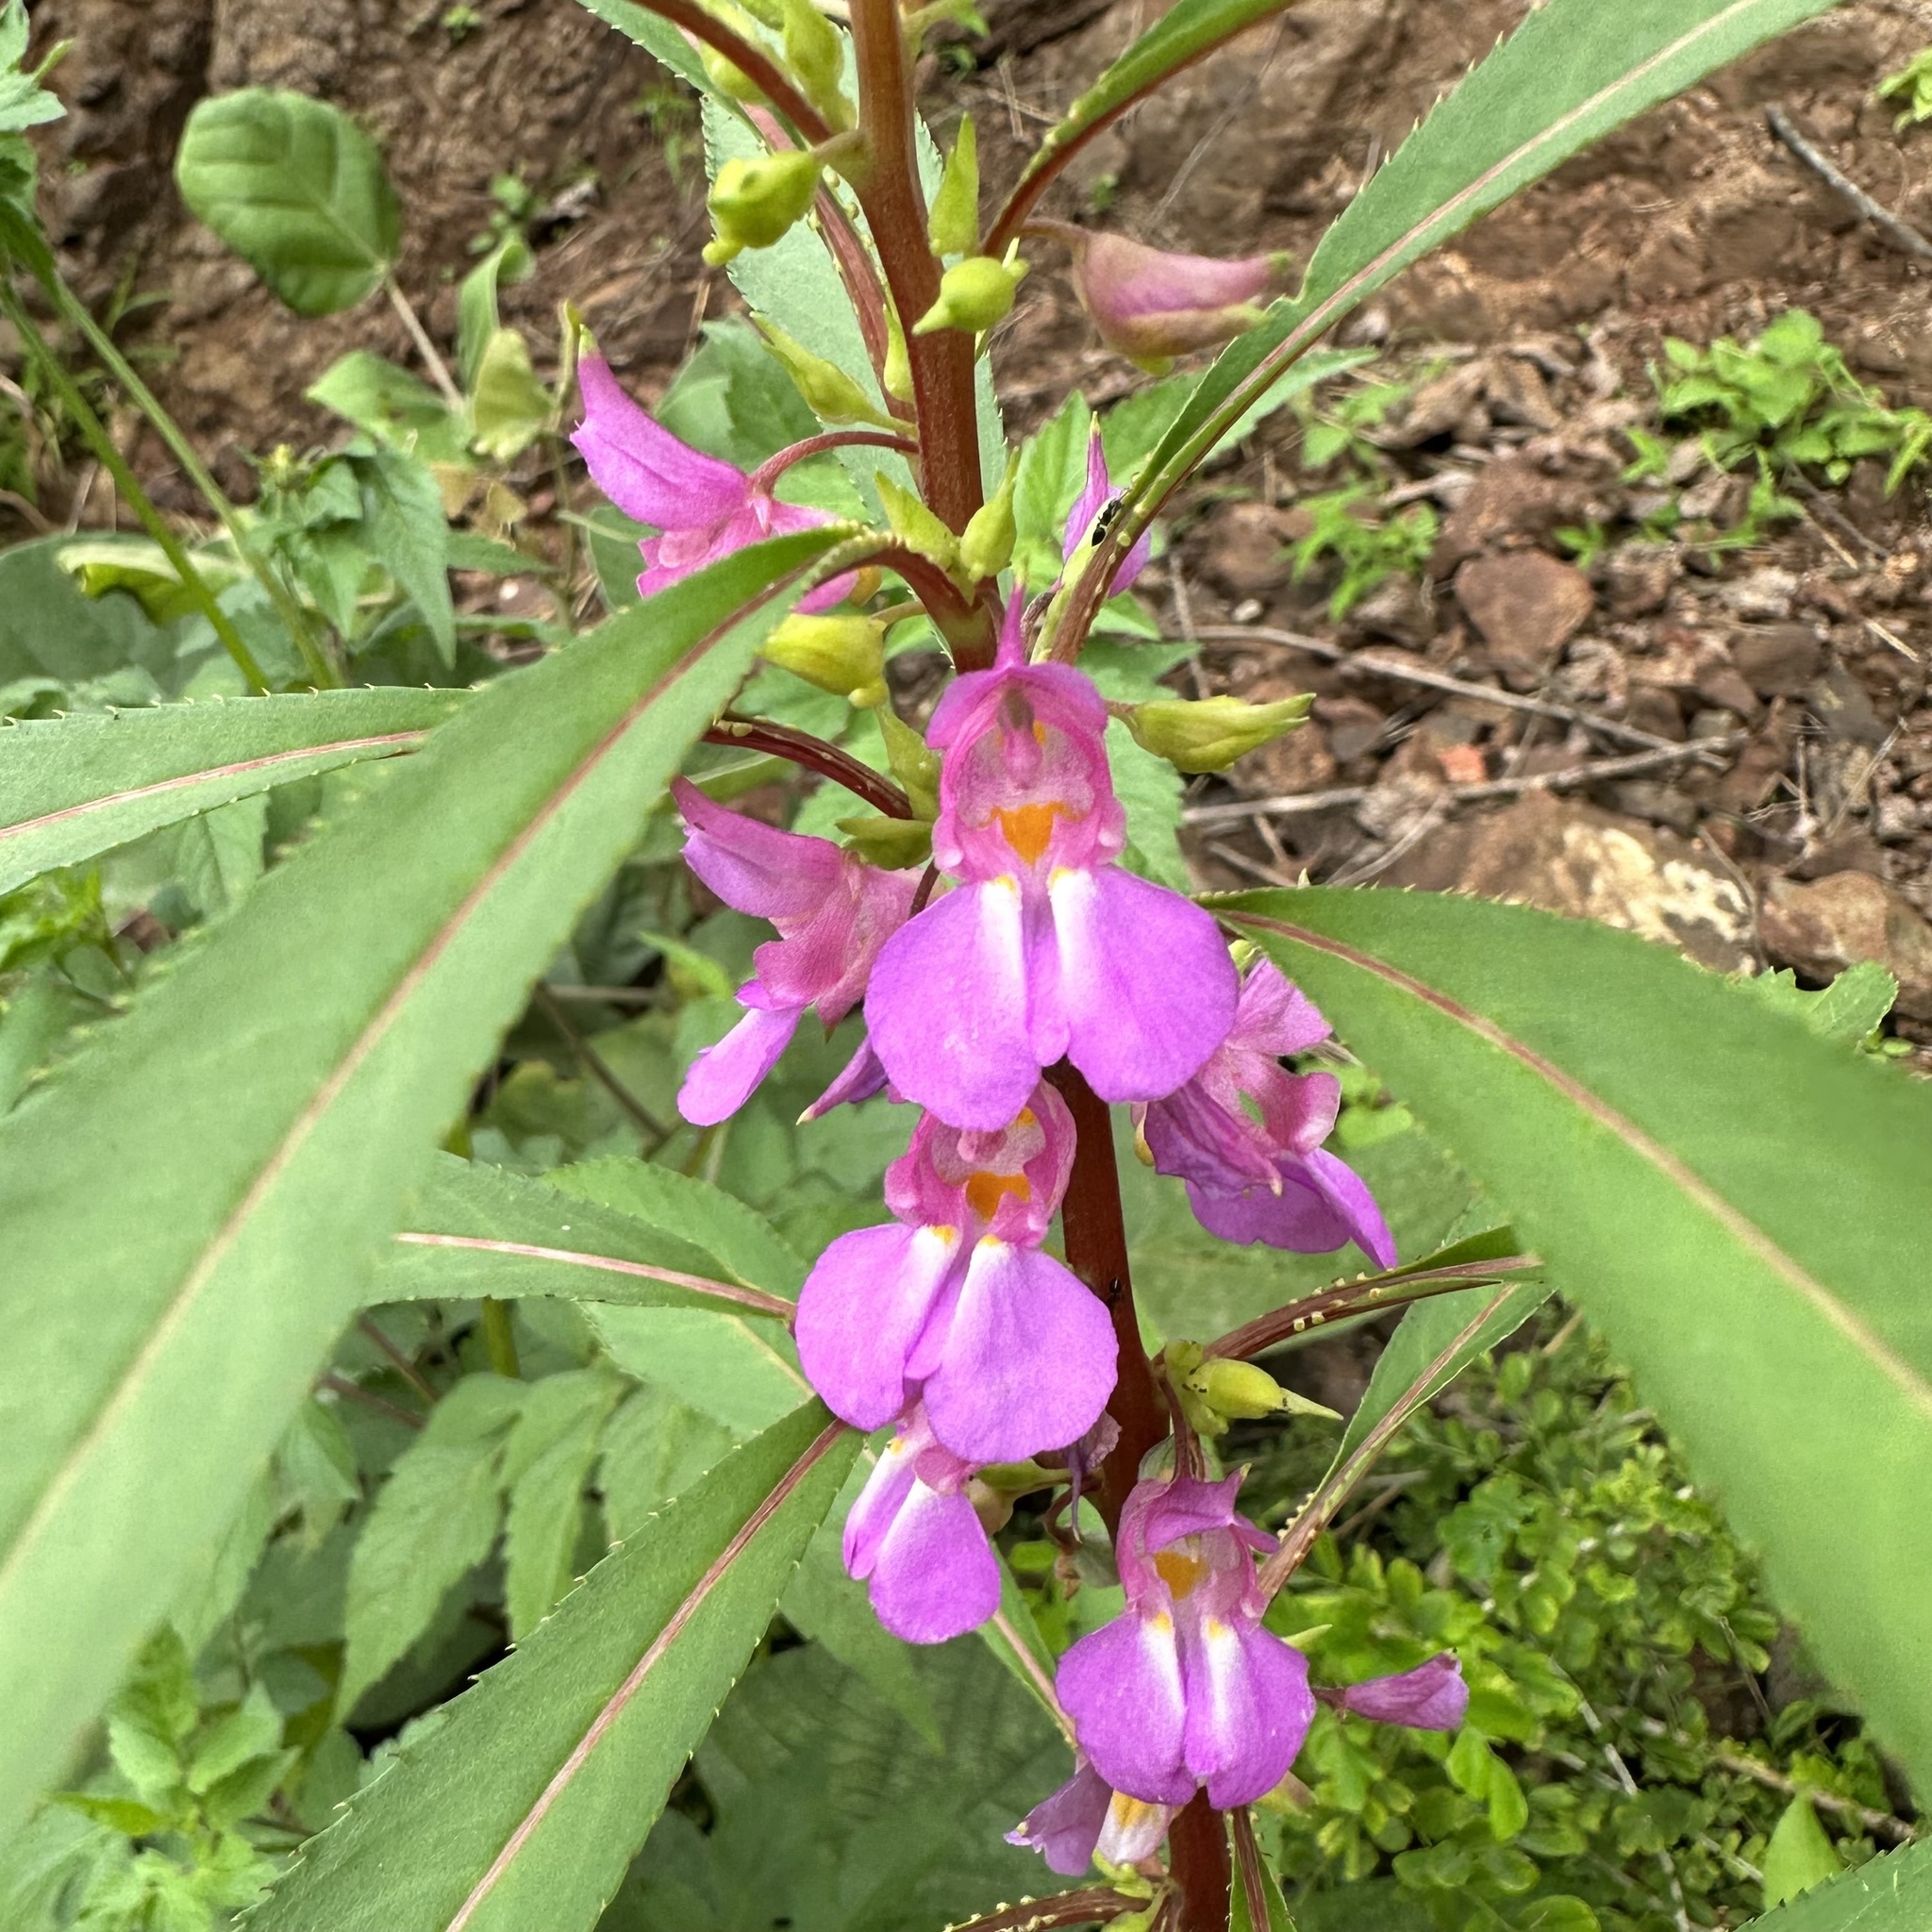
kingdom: Plantae
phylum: Tracheophyta
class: Magnoliopsida
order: Ericales
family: Balsaminaceae
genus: Impatiens
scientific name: Impatiens rosea
